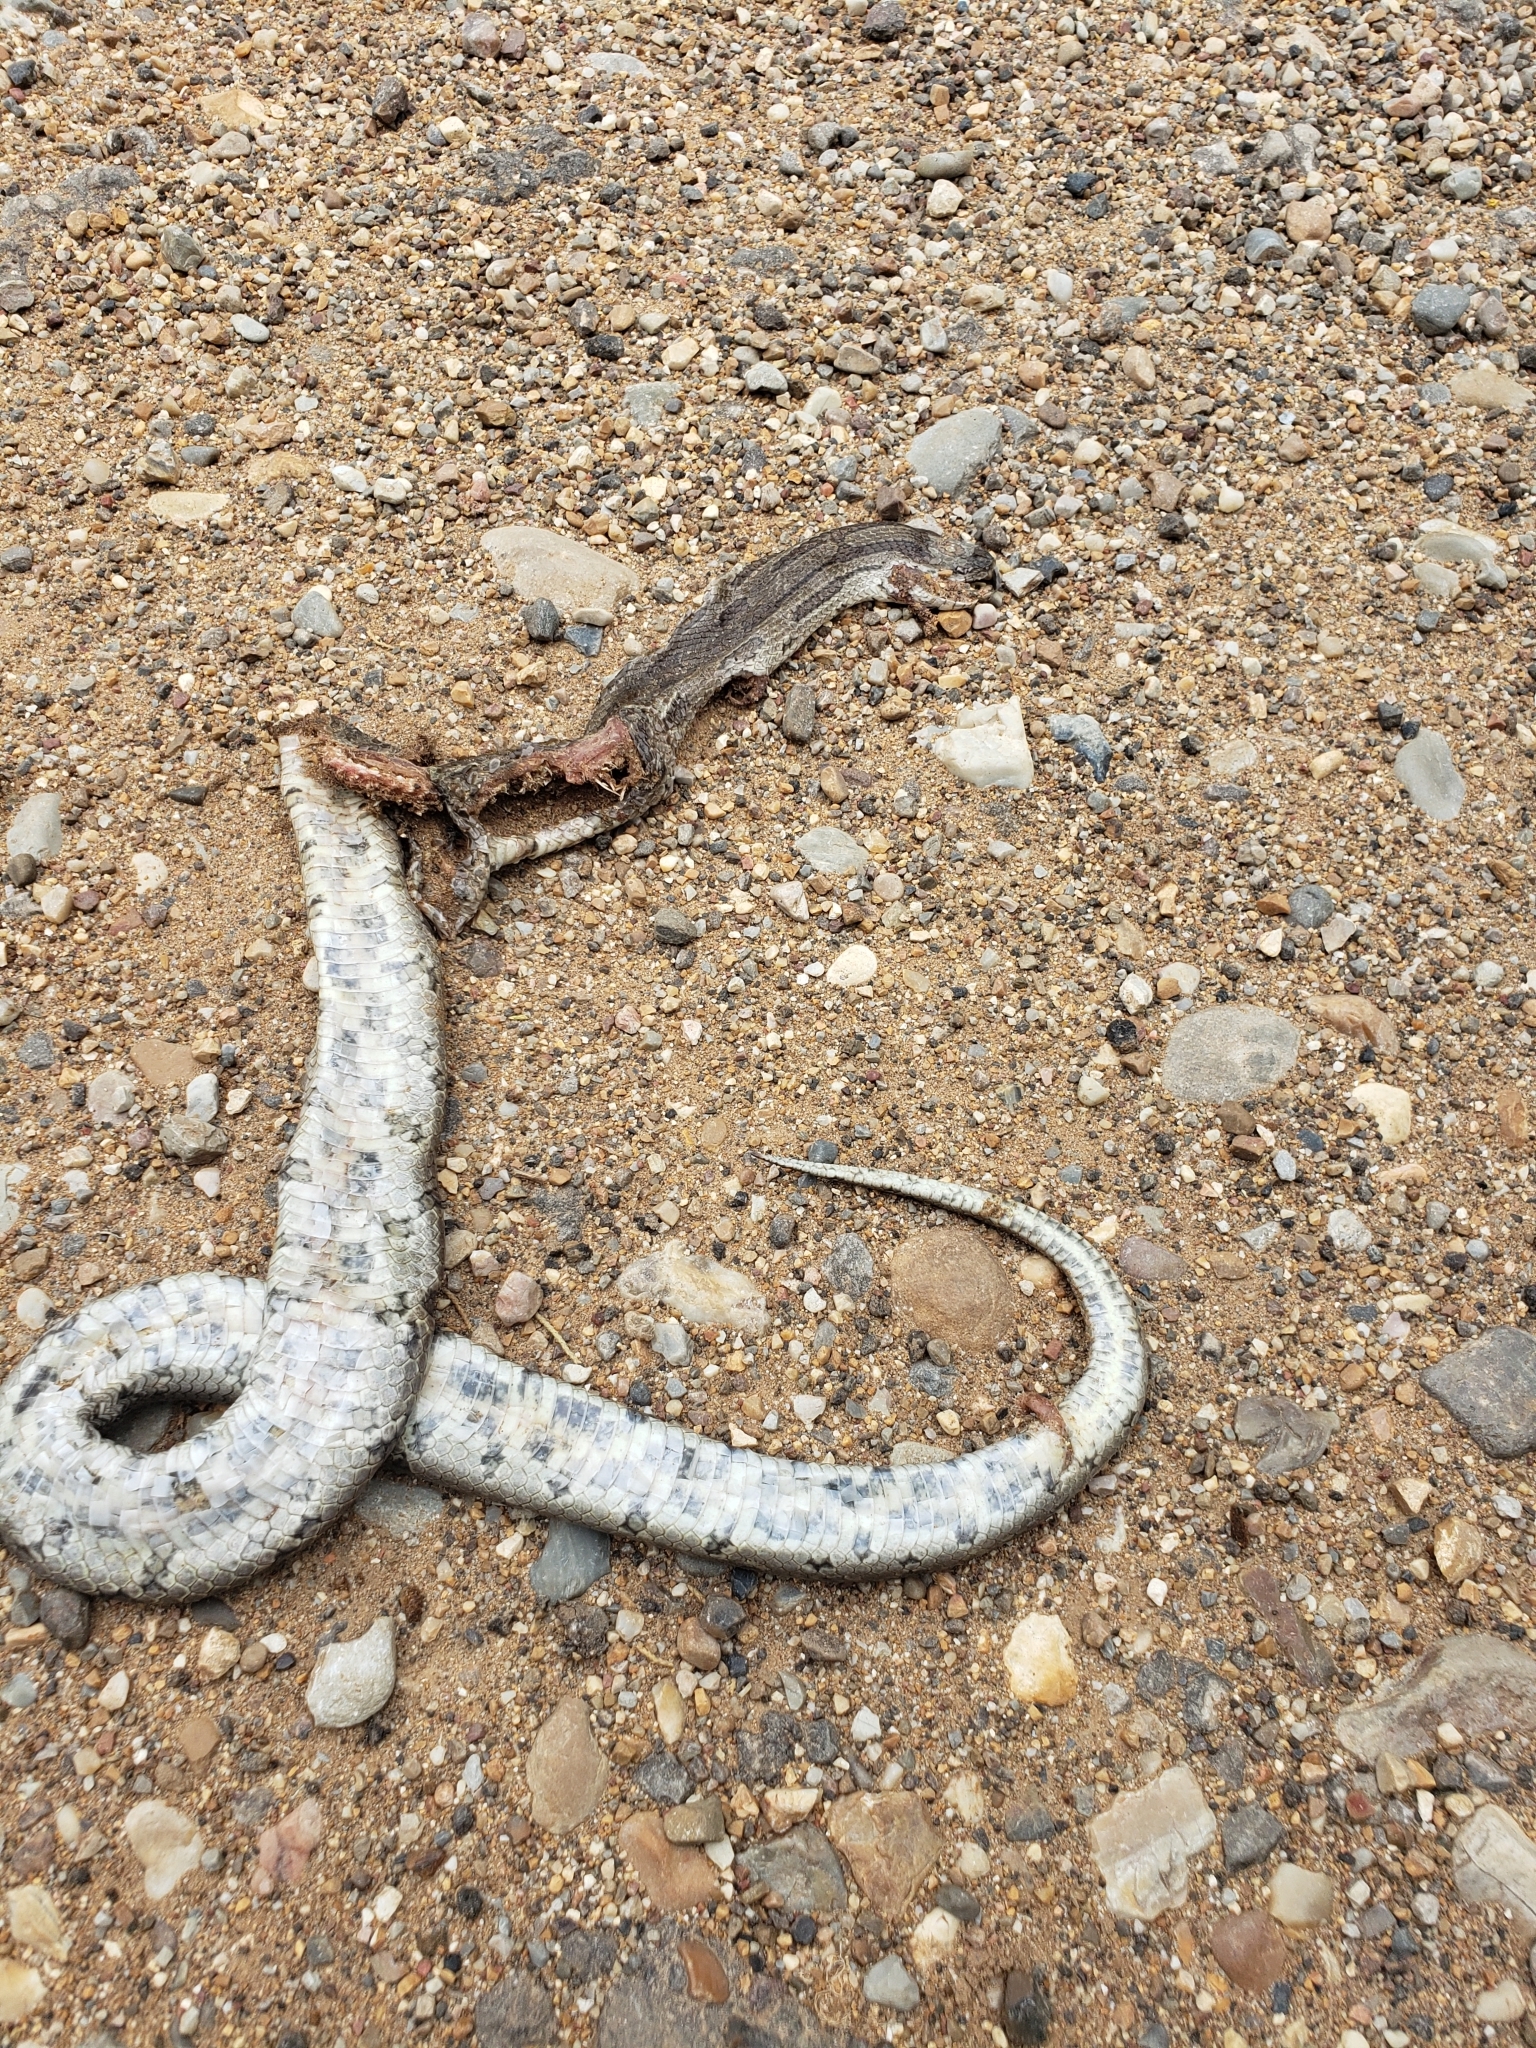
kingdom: Animalia
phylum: Chordata
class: Squamata
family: Colubridae
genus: Lampropeltis
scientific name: Lampropeltis calligaster
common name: Prairie kingsnake
